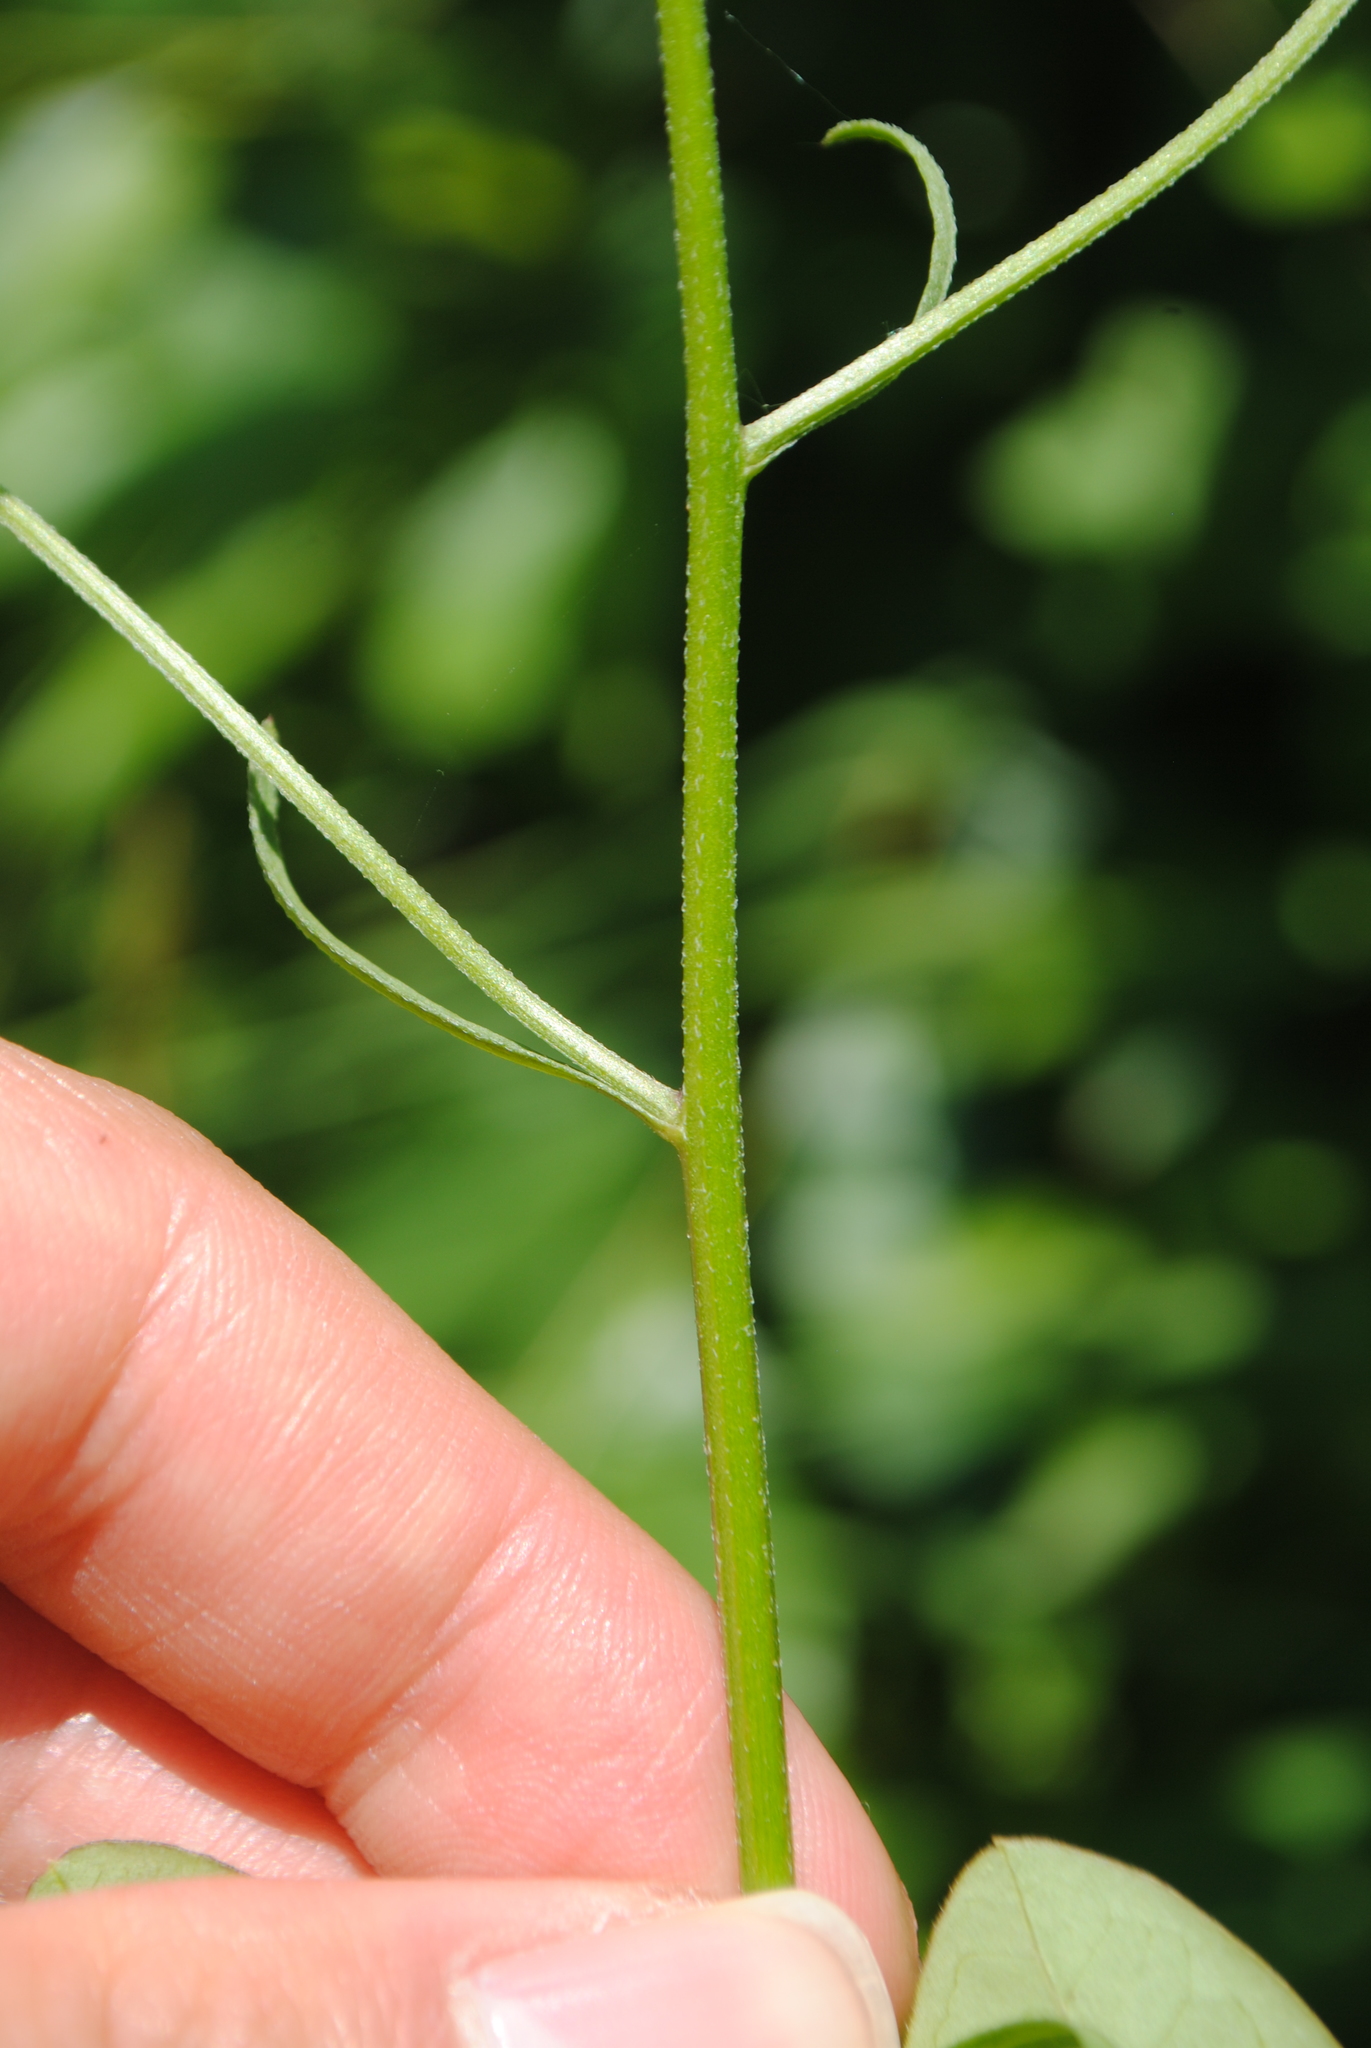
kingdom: Plantae
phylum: Tracheophyta
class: Magnoliopsida
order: Asterales
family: Asteraceae
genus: Erigeron
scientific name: Erigeron strigosus
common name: Common eastern fleabane
